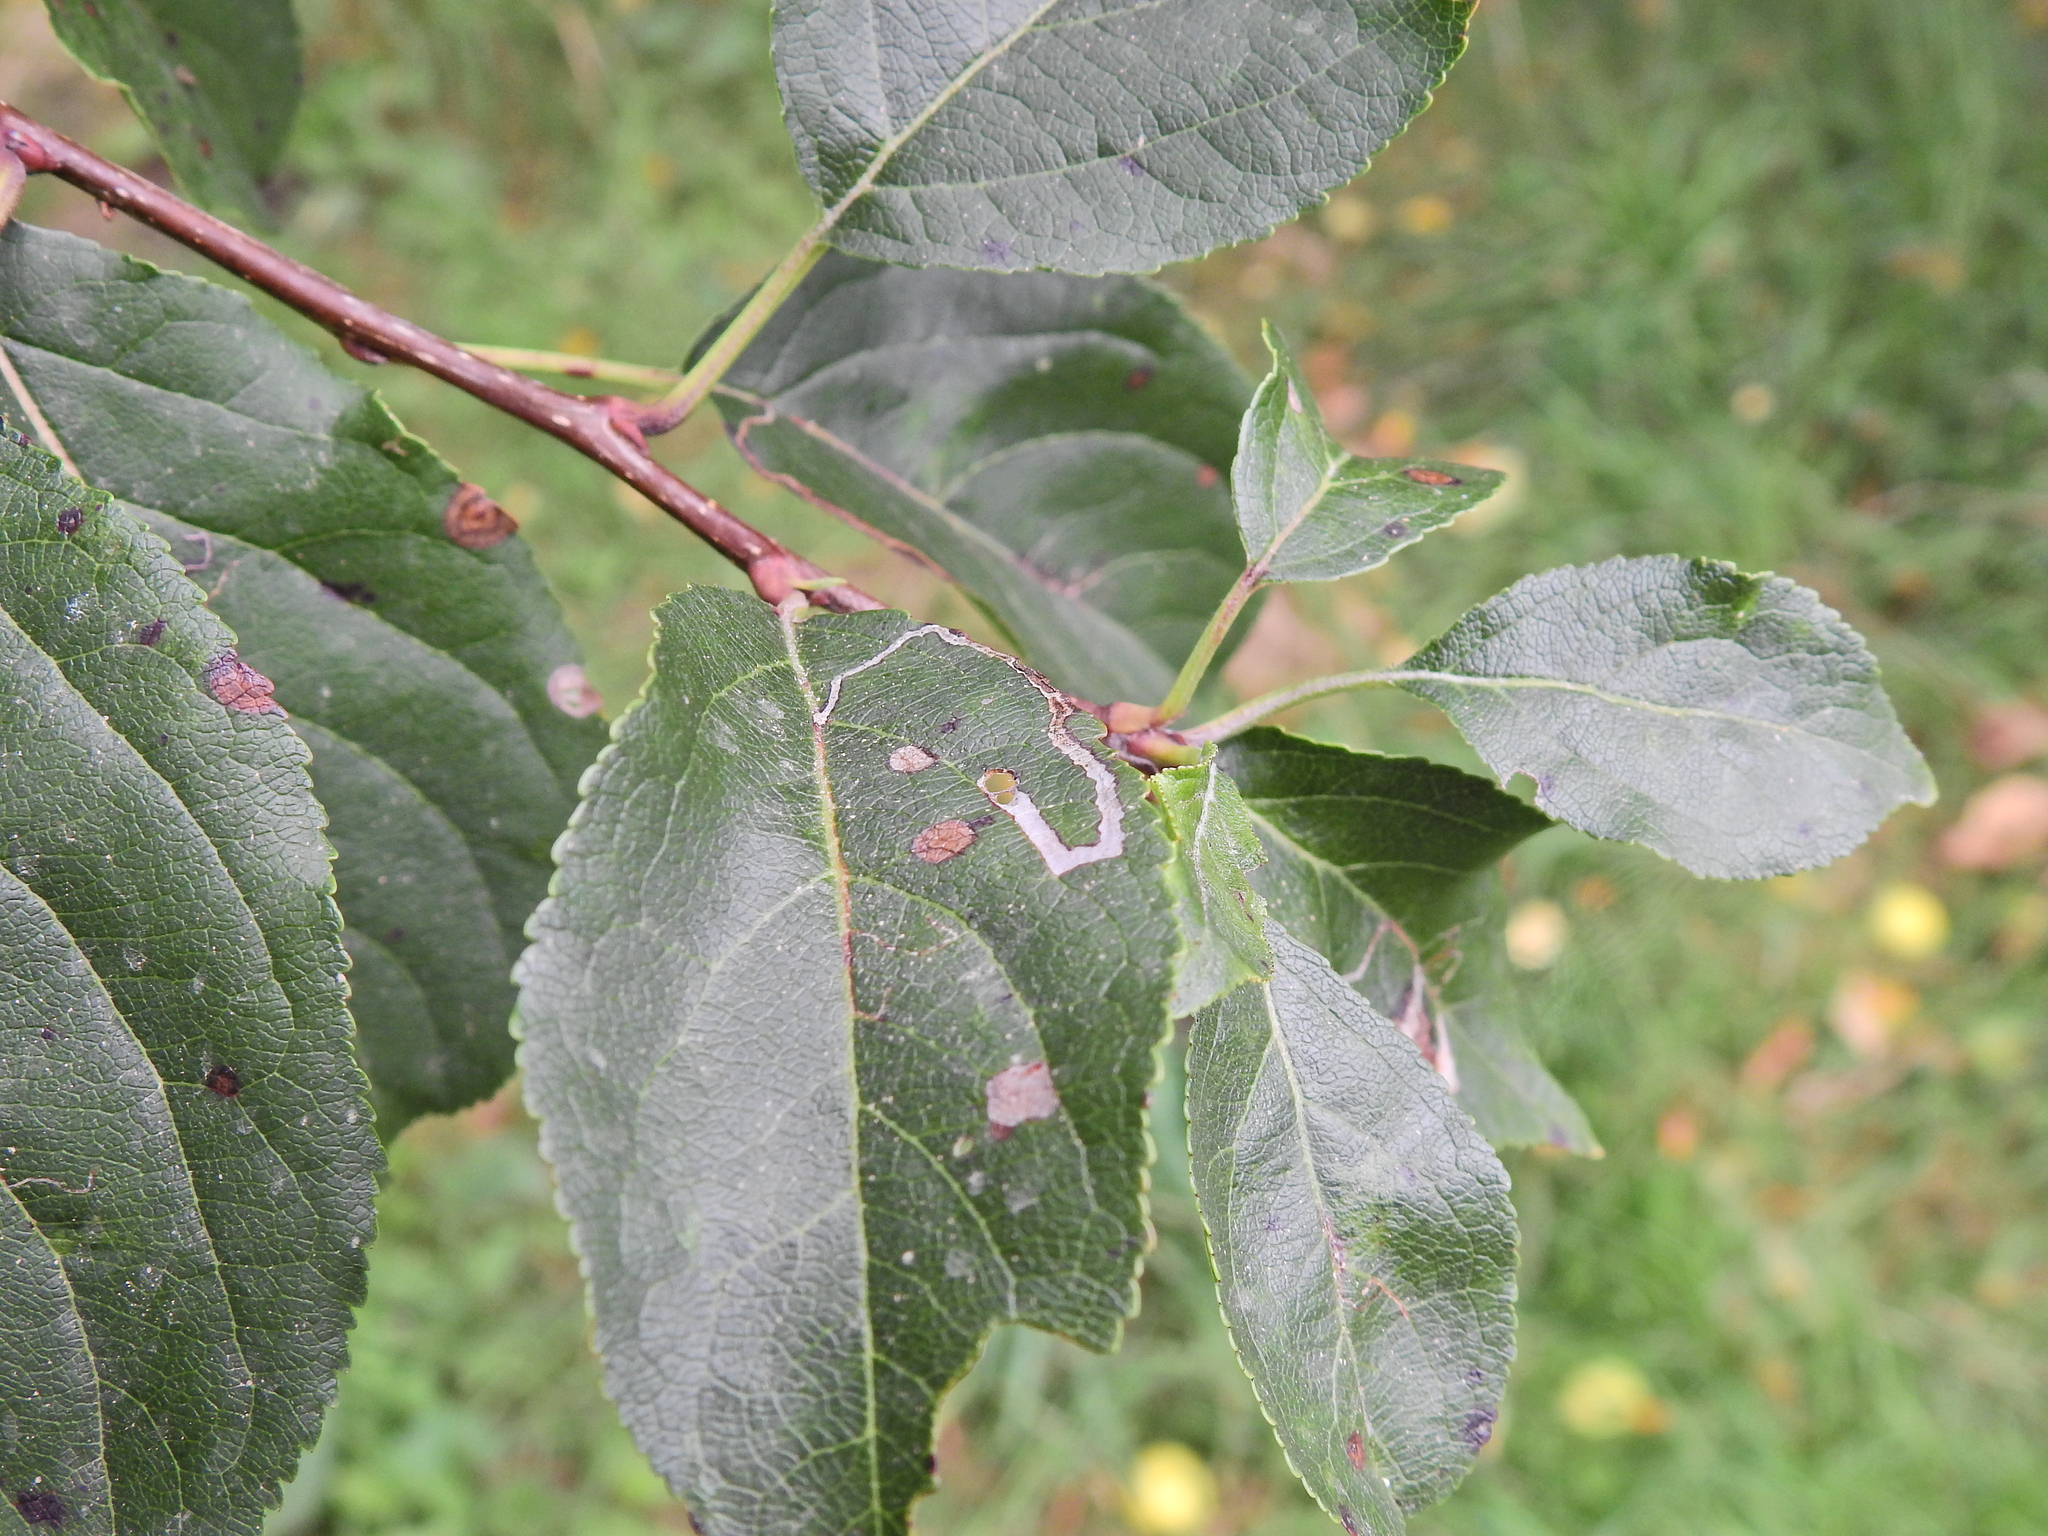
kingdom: Animalia
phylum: Arthropoda
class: Insecta
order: Lepidoptera
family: Lyonetiidae
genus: Lyonetia
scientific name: Lyonetia clerkella
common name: Apple leaf miner
